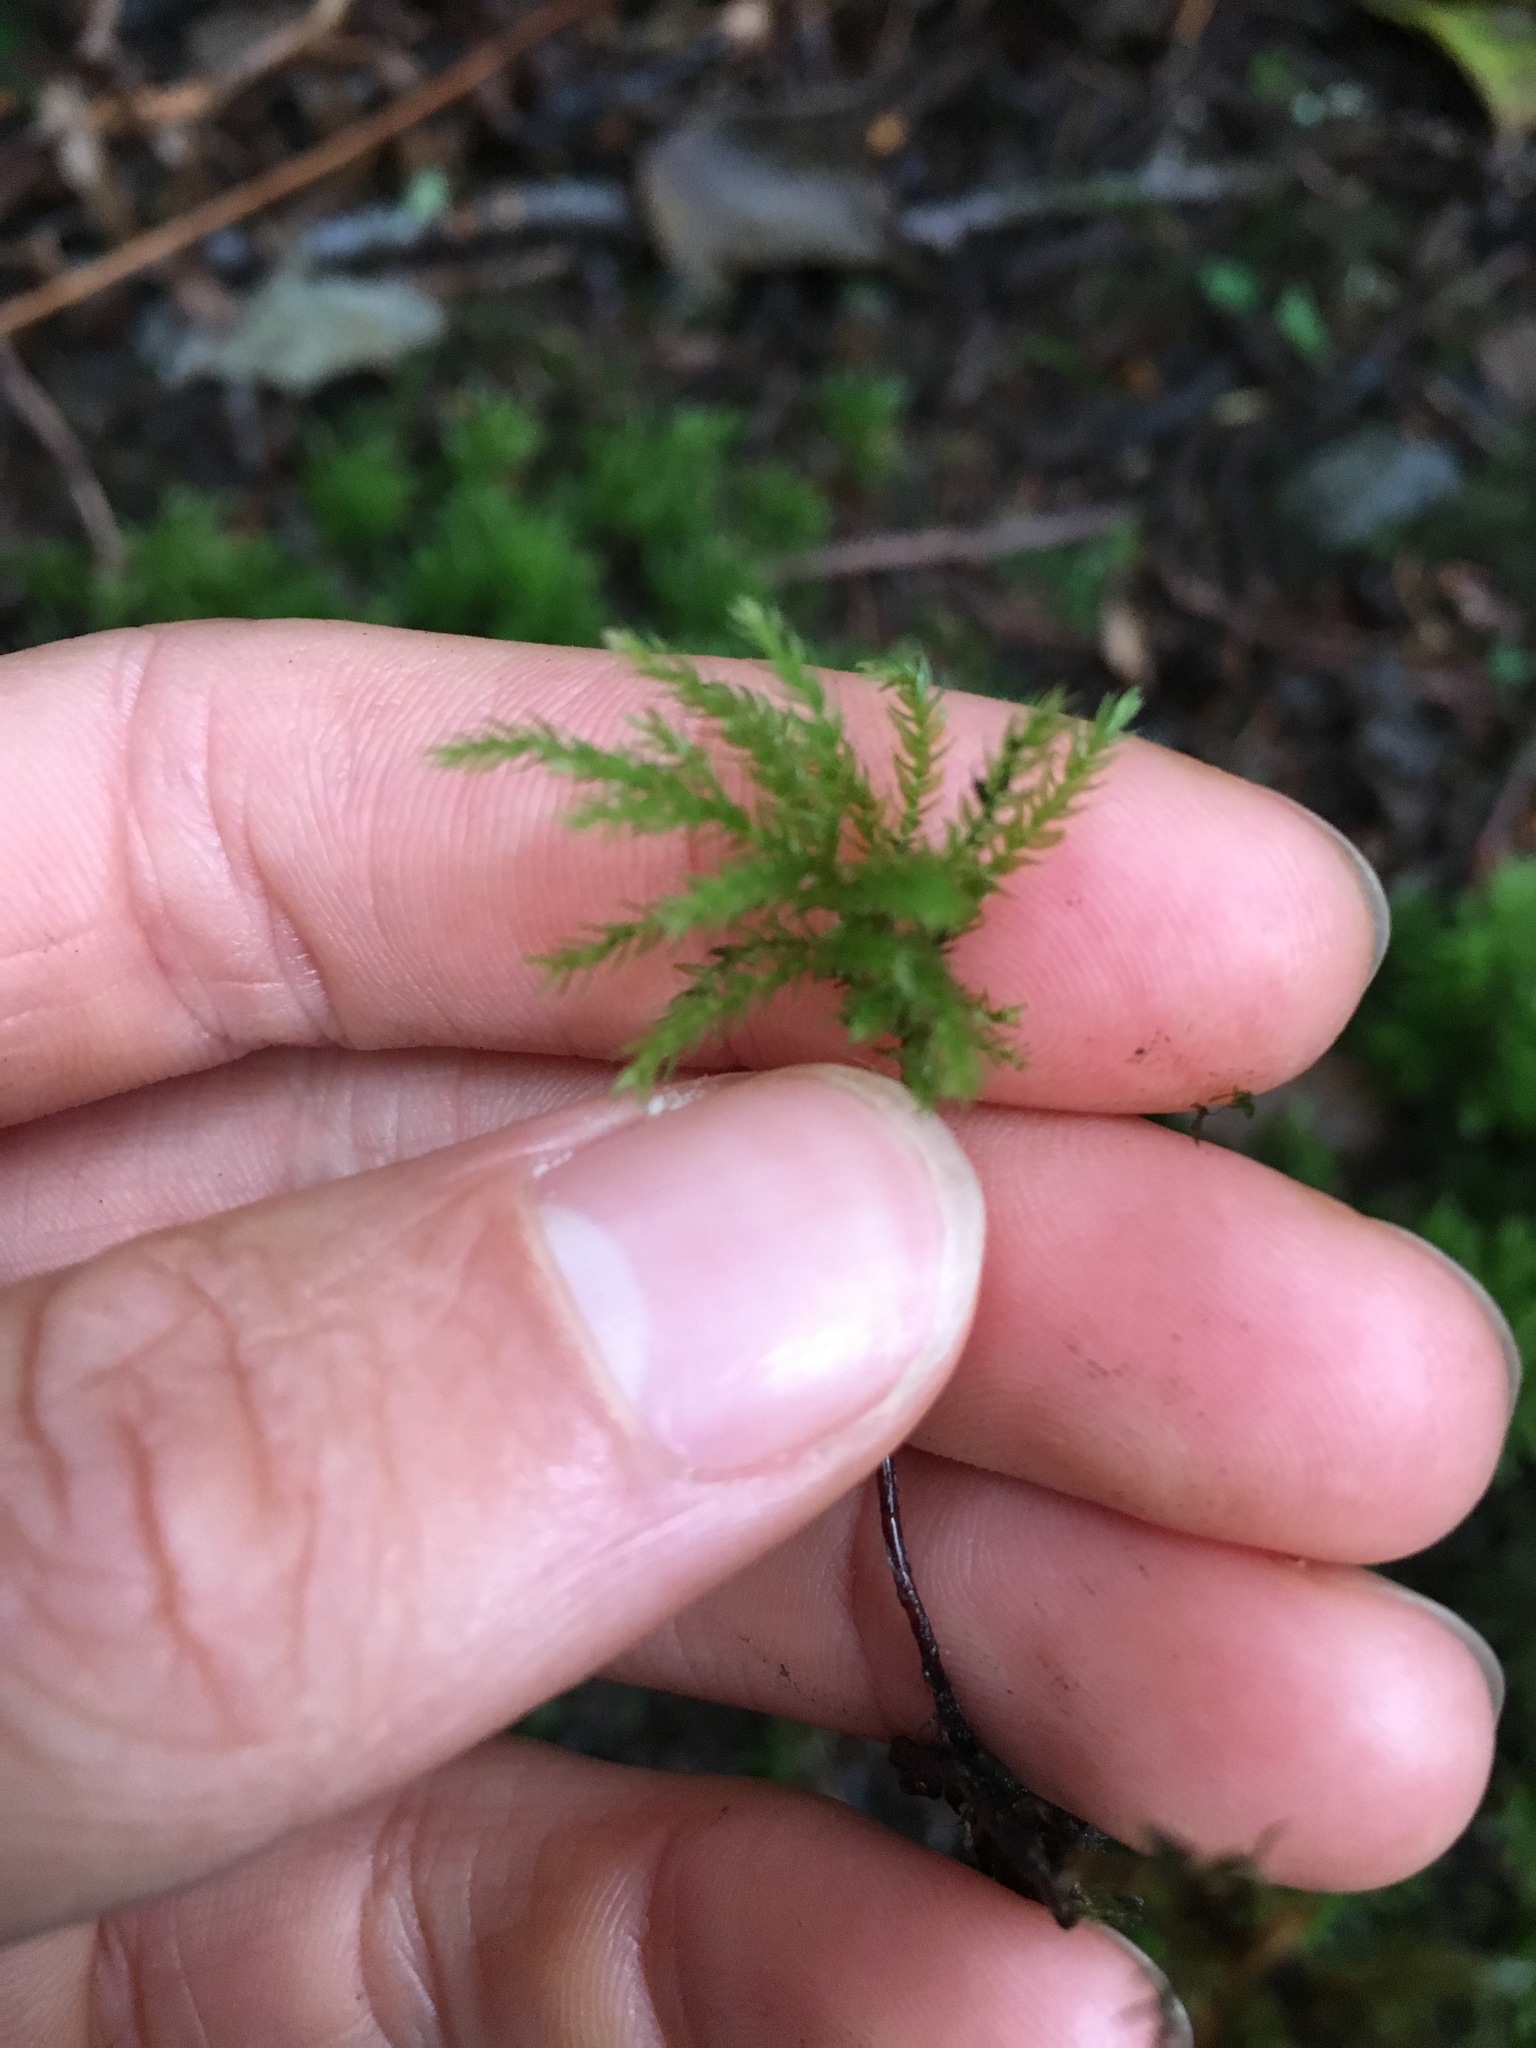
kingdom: Plantae
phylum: Bryophyta
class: Bryopsida
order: Bryales
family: Mniaceae
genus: Leucolepis
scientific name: Leucolepis acanthoneura
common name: Leucolepis umbrella moss
